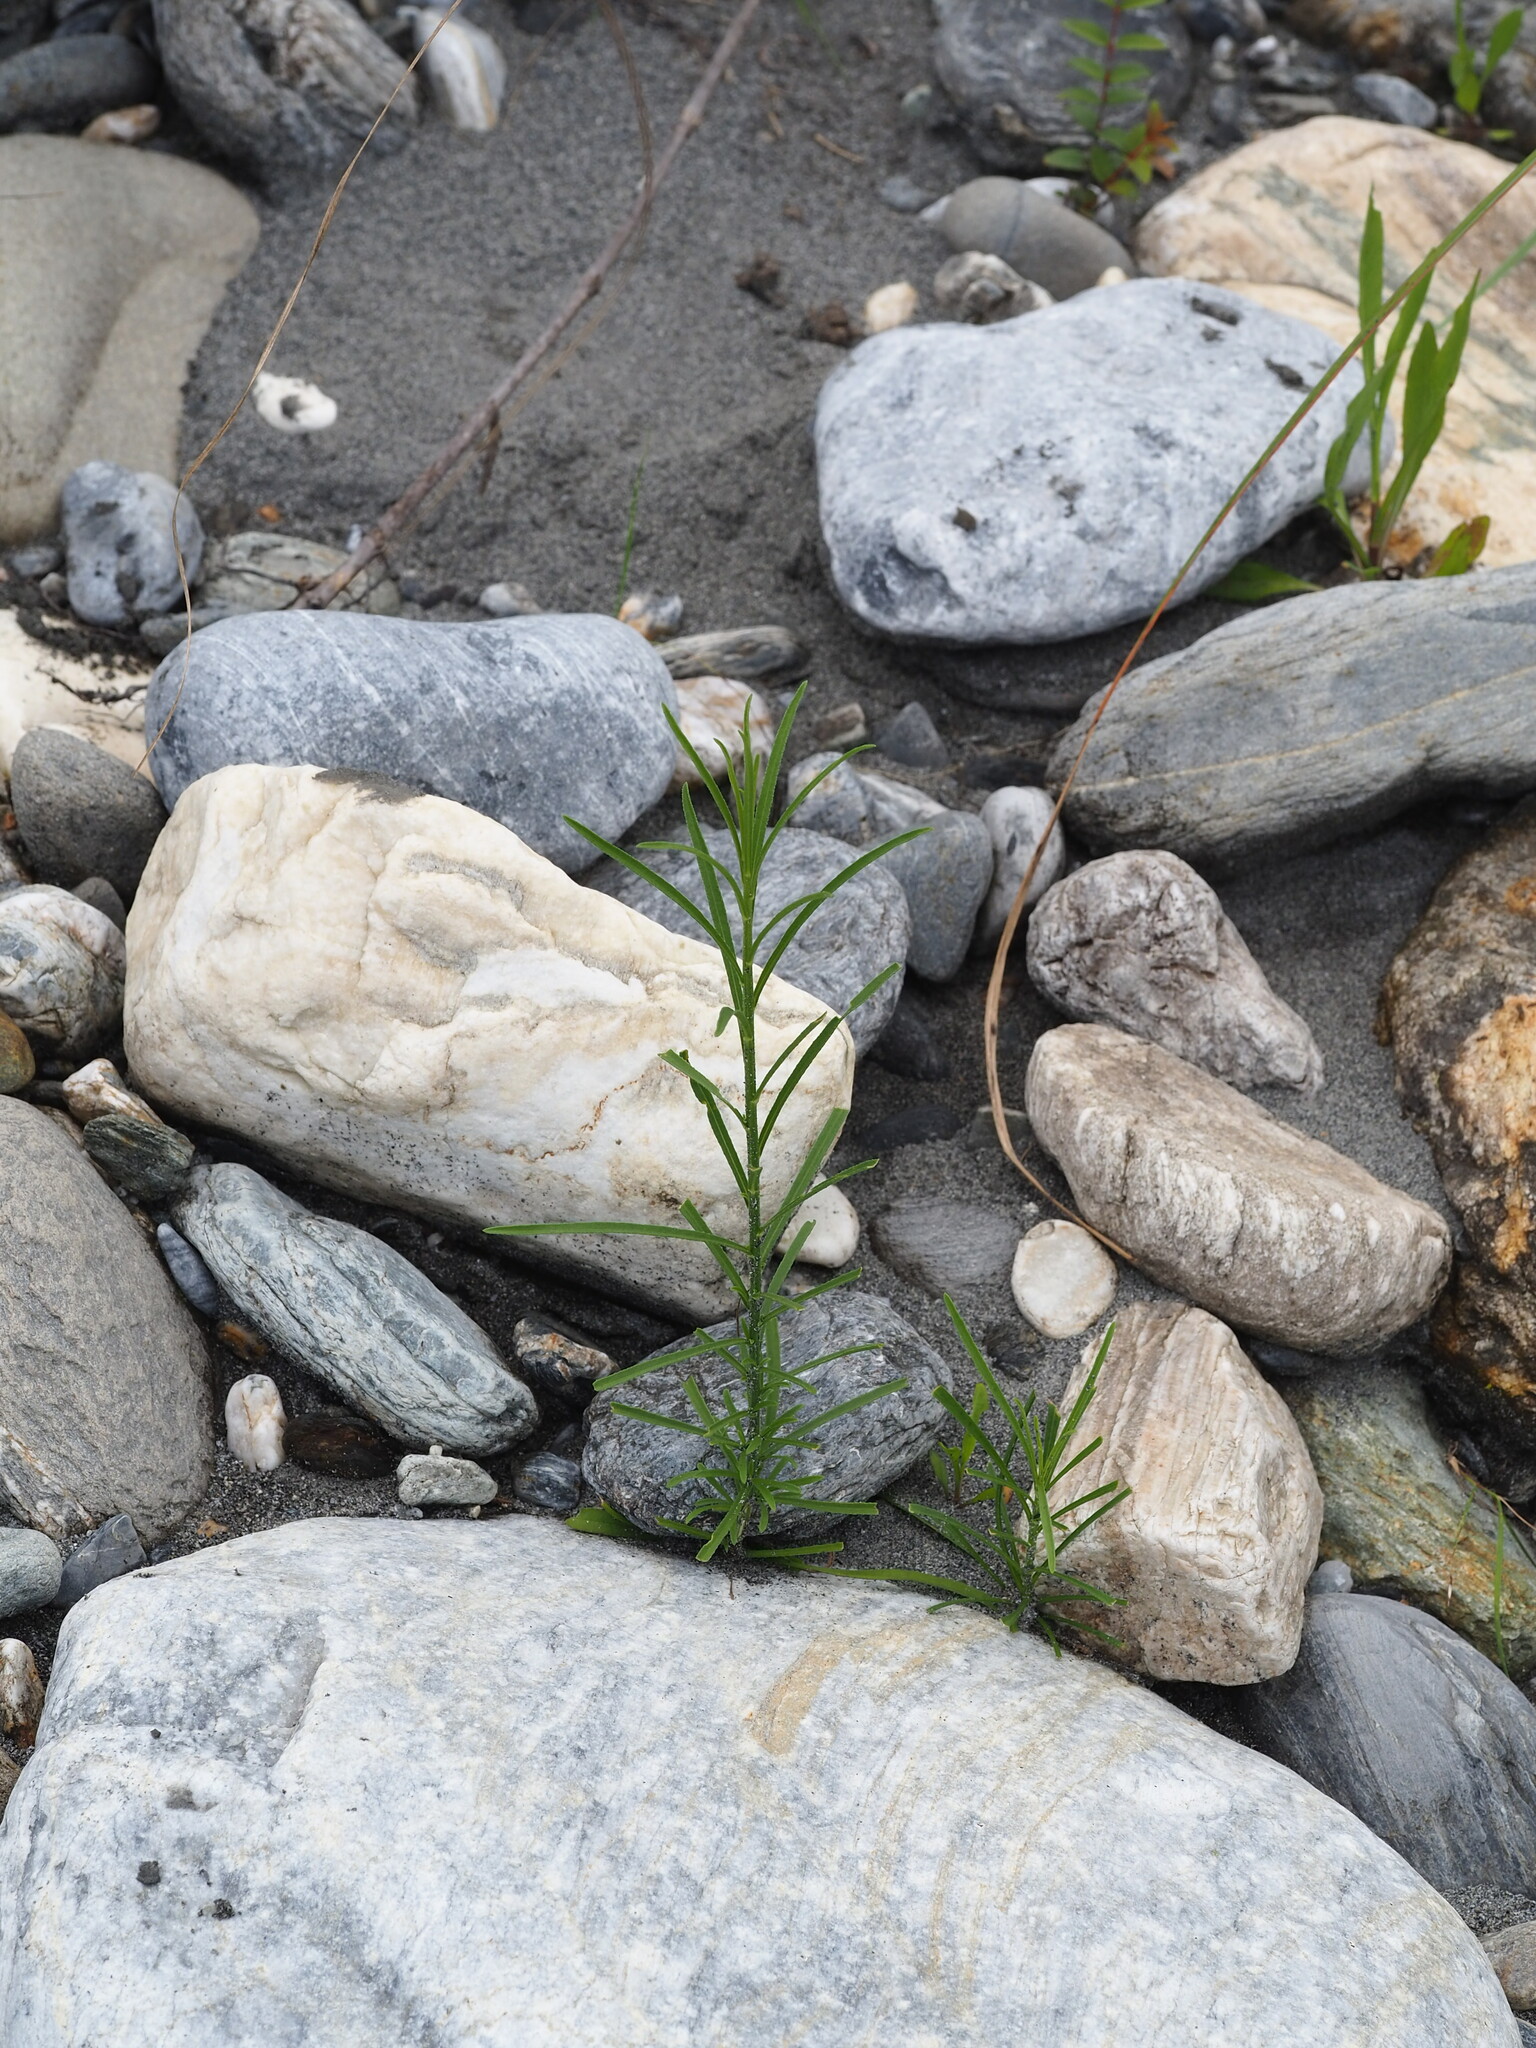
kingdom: Plantae
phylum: Tracheophyta
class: Magnoliopsida
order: Asterales
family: Asteraceae
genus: Heteropappus
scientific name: Heteropappus altaicus
